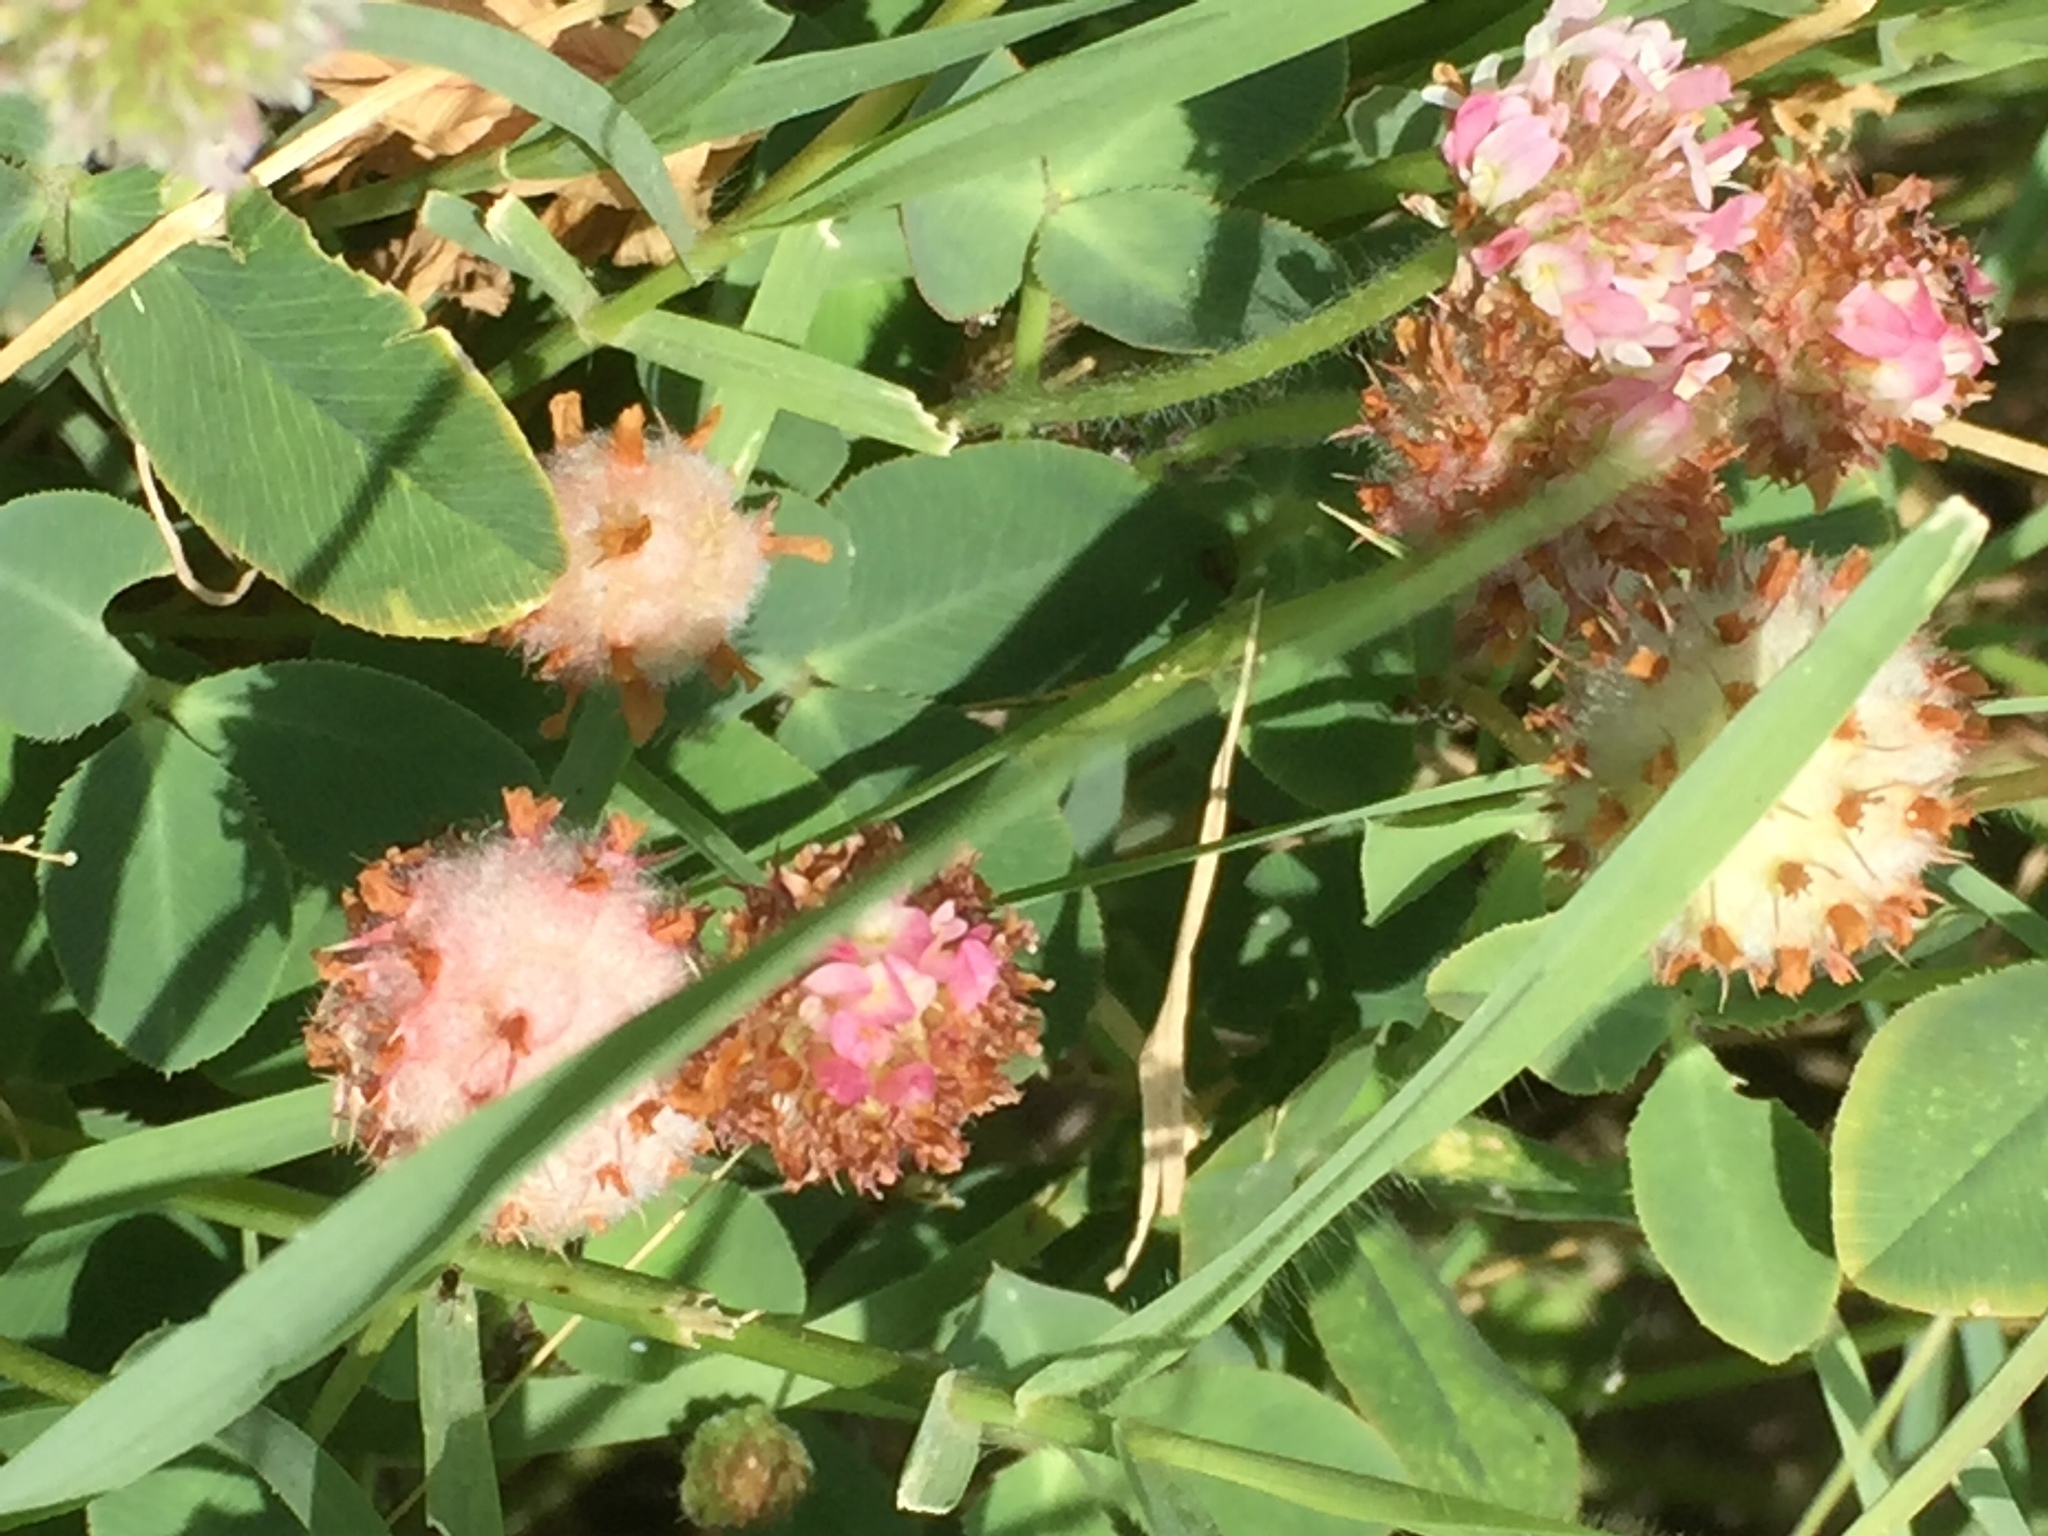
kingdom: Plantae
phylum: Tracheophyta
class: Magnoliopsida
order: Fabales
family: Fabaceae
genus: Trifolium
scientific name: Trifolium fragiferum
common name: Strawberry clover
